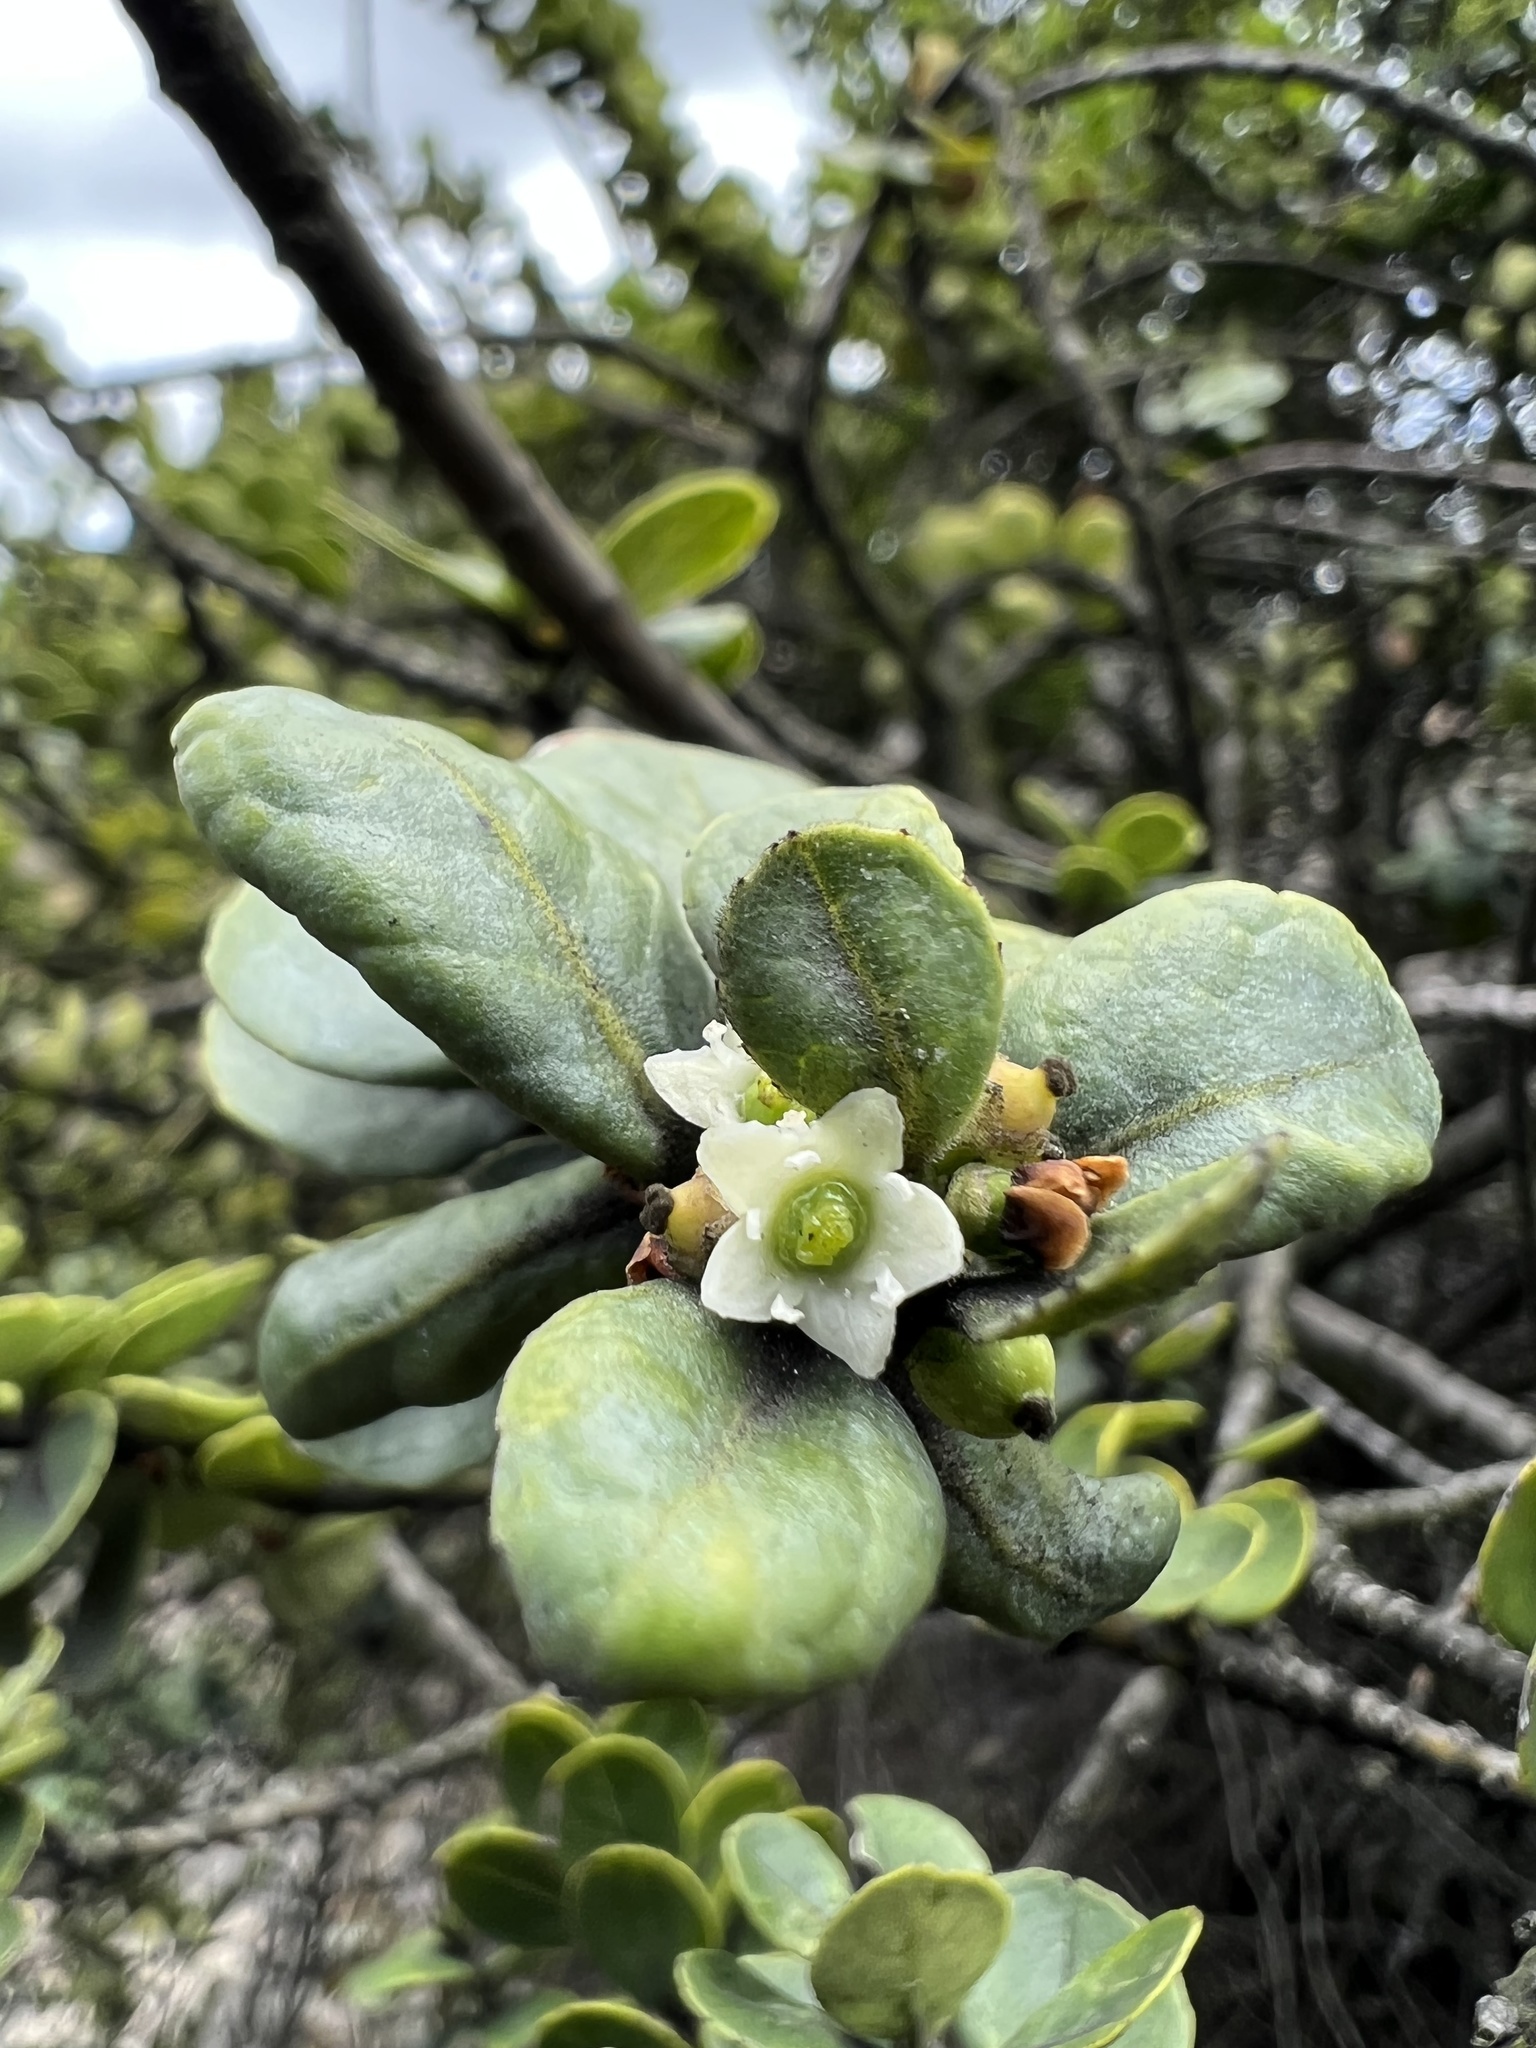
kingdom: Plantae
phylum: Tracheophyta
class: Magnoliopsida
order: Aquifoliales
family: Aquifoliaceae
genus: Ilex
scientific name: Ilex microphylla
